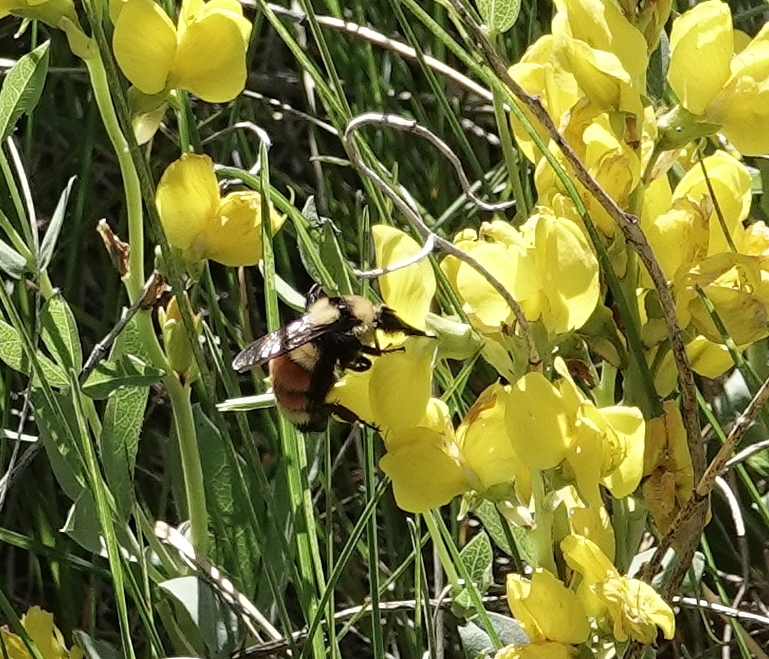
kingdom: Animalia
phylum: Arthropoda
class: Insecta
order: Hymenoptera
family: Apidae
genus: Bombus
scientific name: Bombus huntii
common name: Hunt bumble bee
